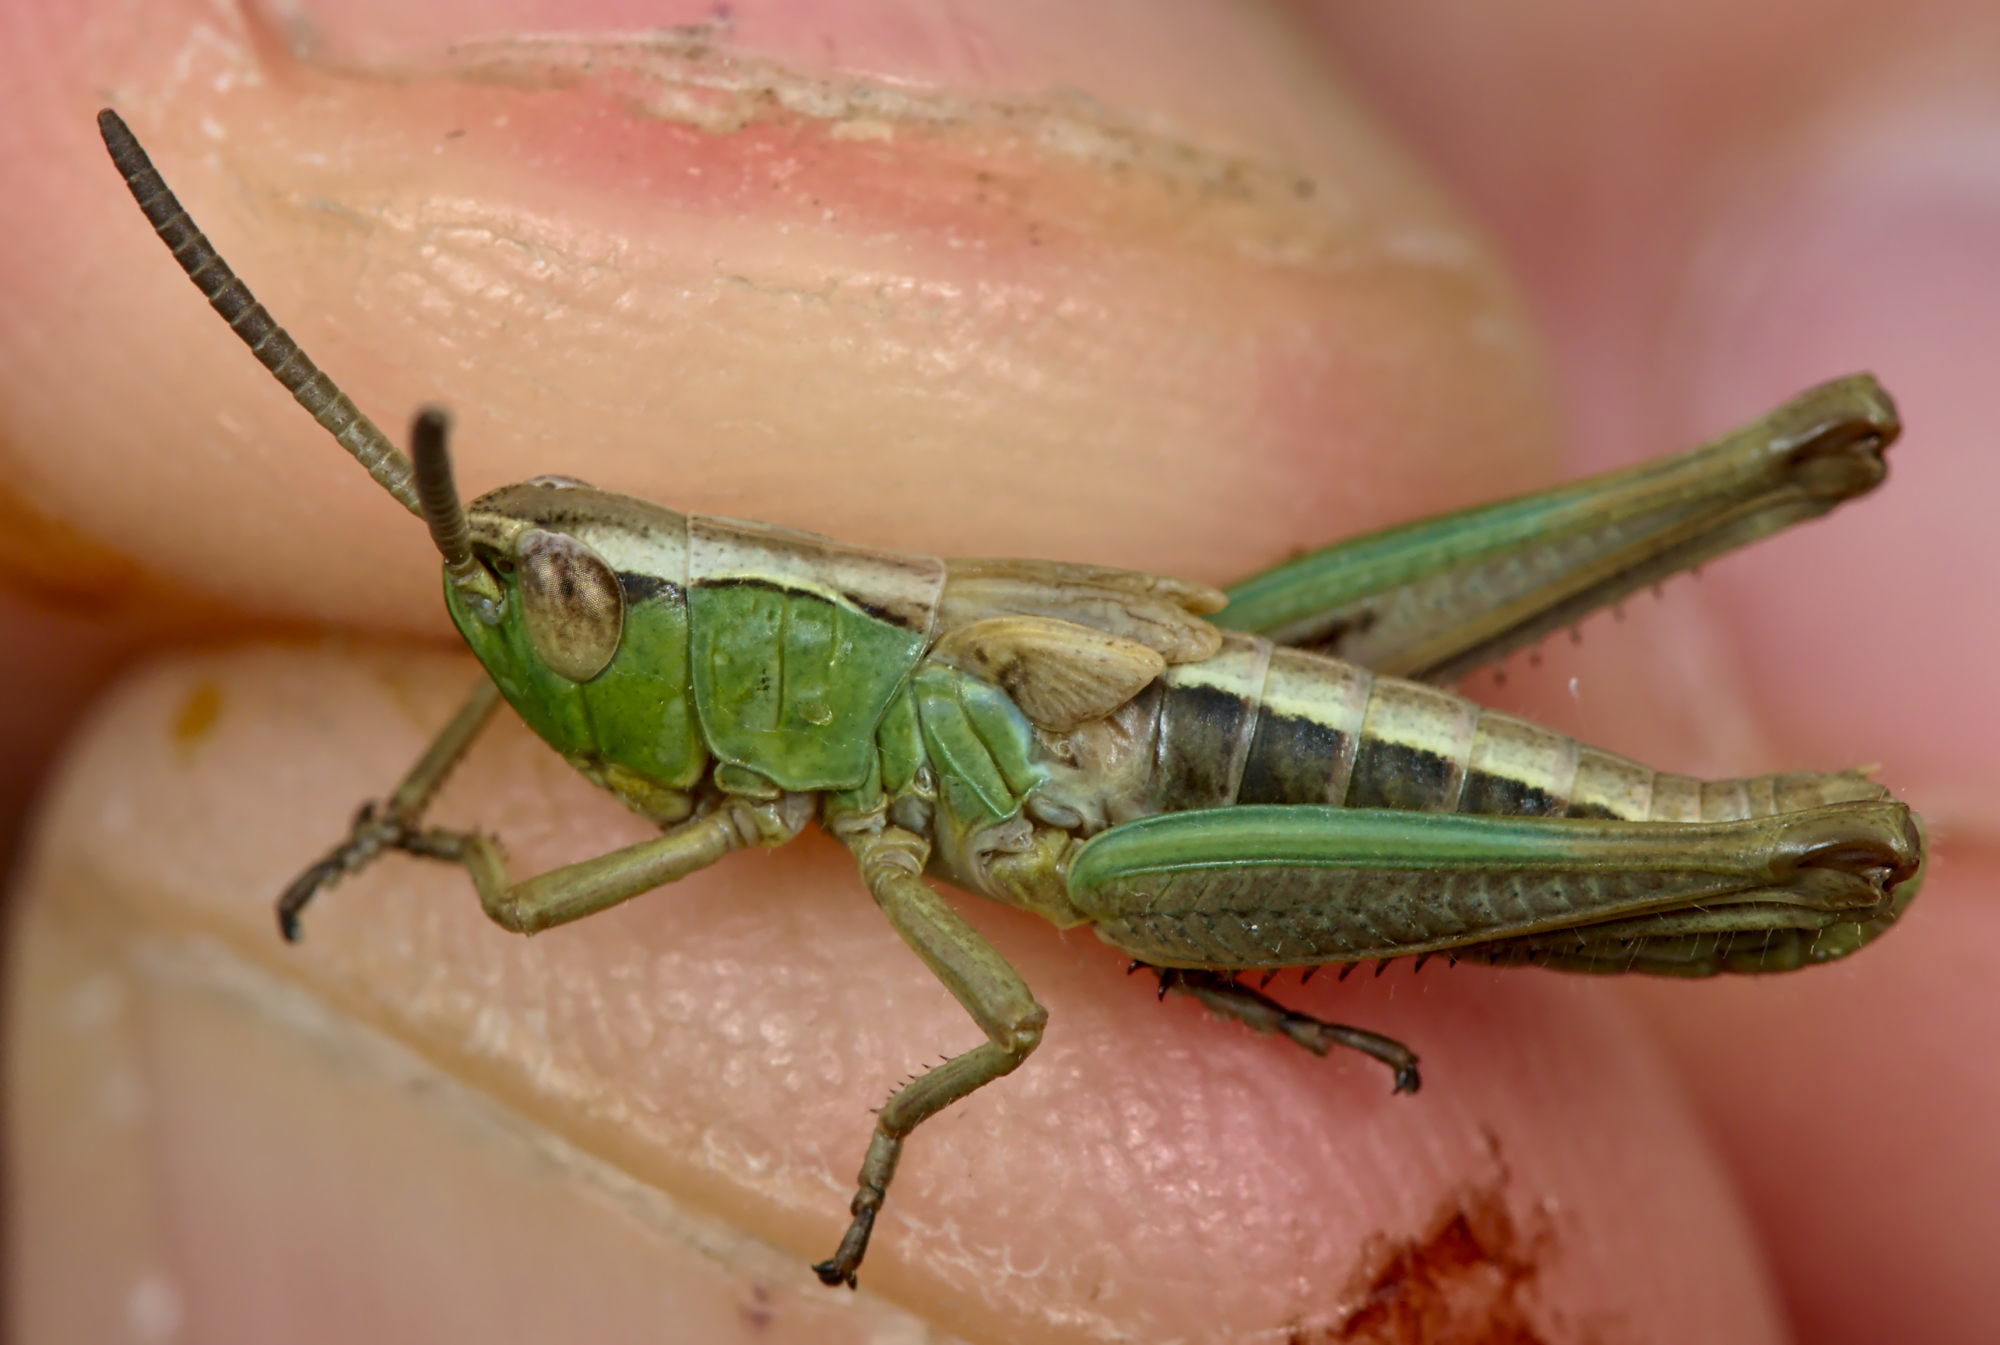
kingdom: Animalia
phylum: Arthropoda
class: Insecta
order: Orthoptera
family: Acrididae
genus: Pseudochorthippus
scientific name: Pseudochorthippus parallelus
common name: Meadow grasshopper
